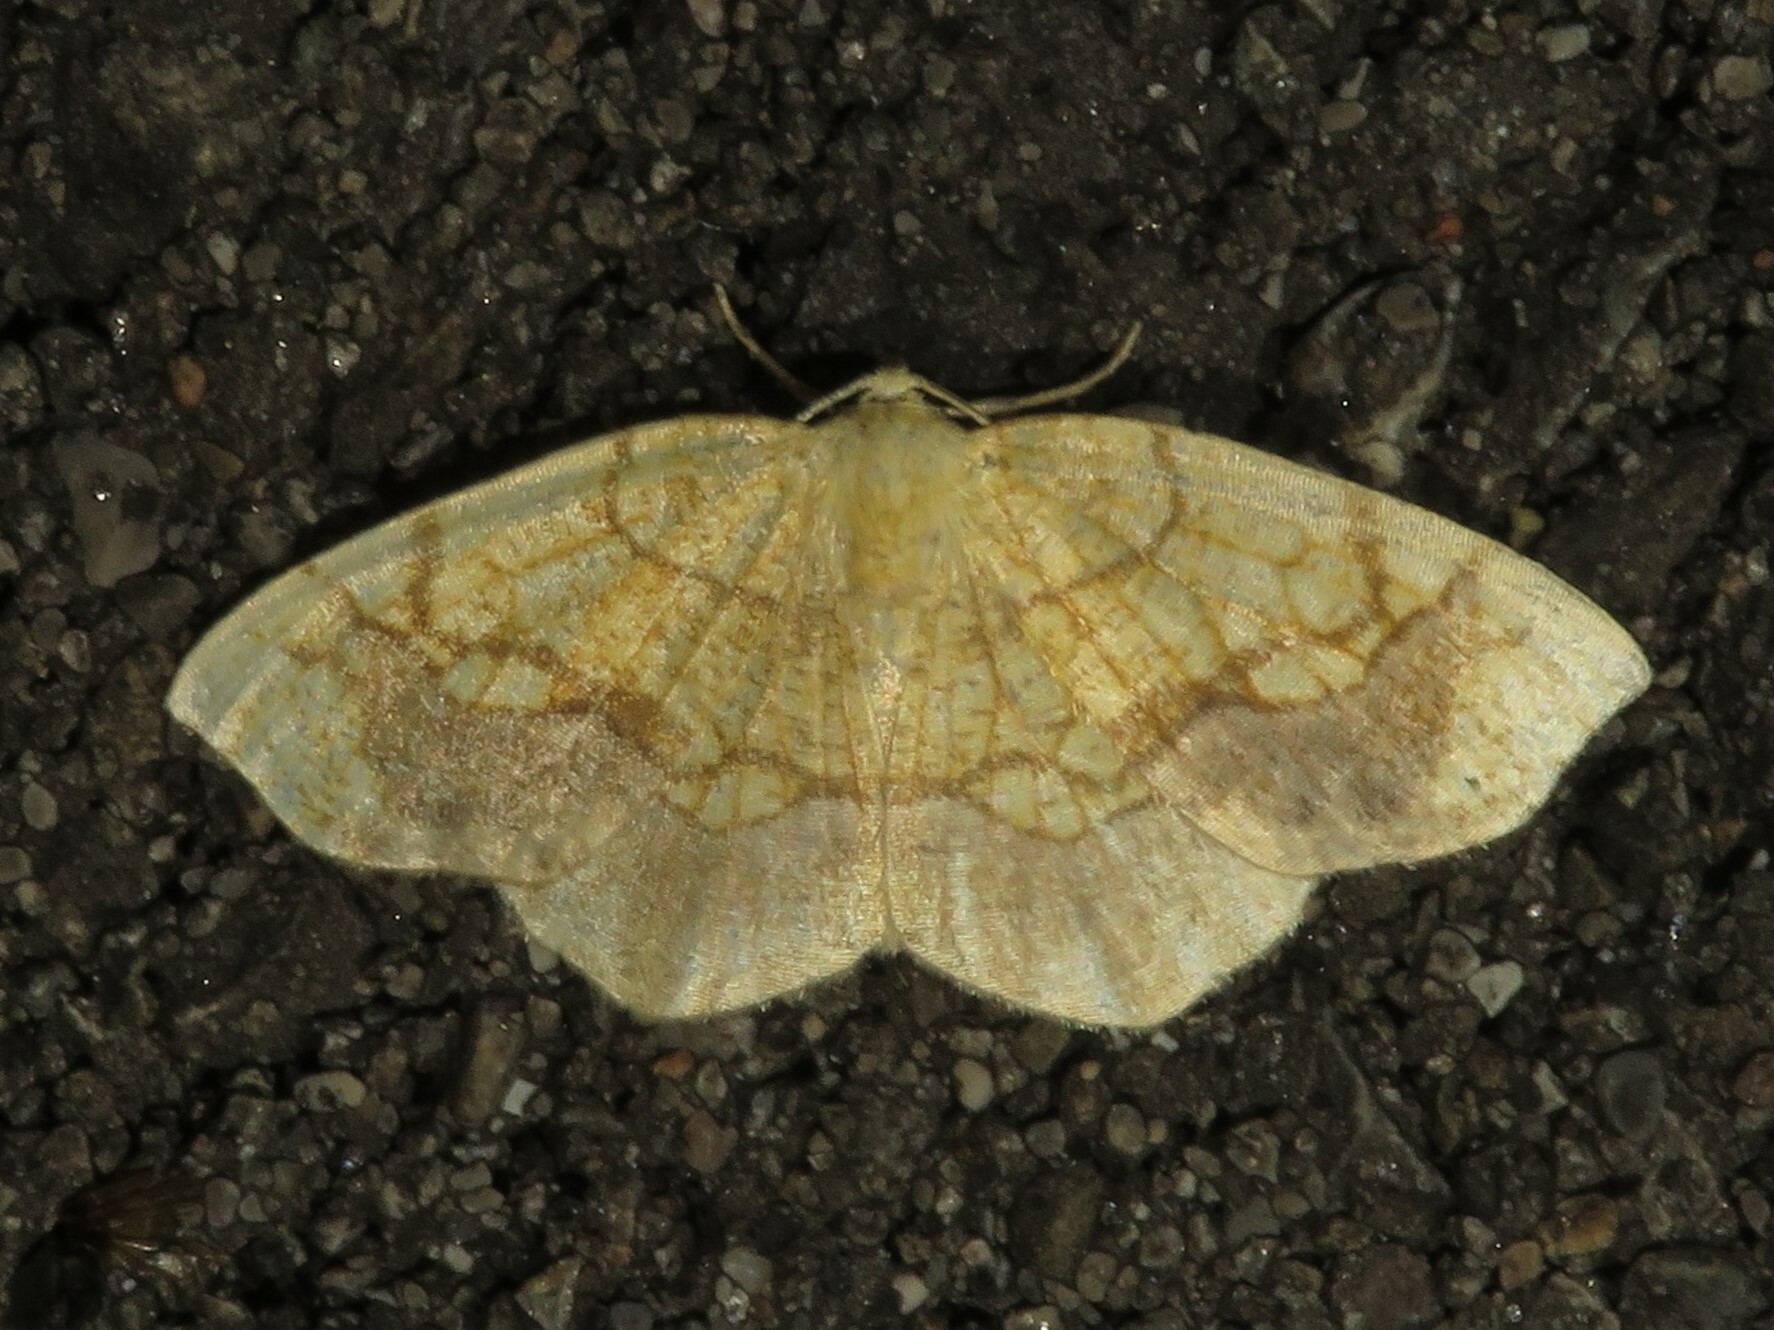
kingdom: Animalia
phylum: Arthropoda
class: Insecta
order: Lepidoptera
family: Geometridae
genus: Nematocampa
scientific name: Nematocampa resistaria
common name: Horned spanworm moth
